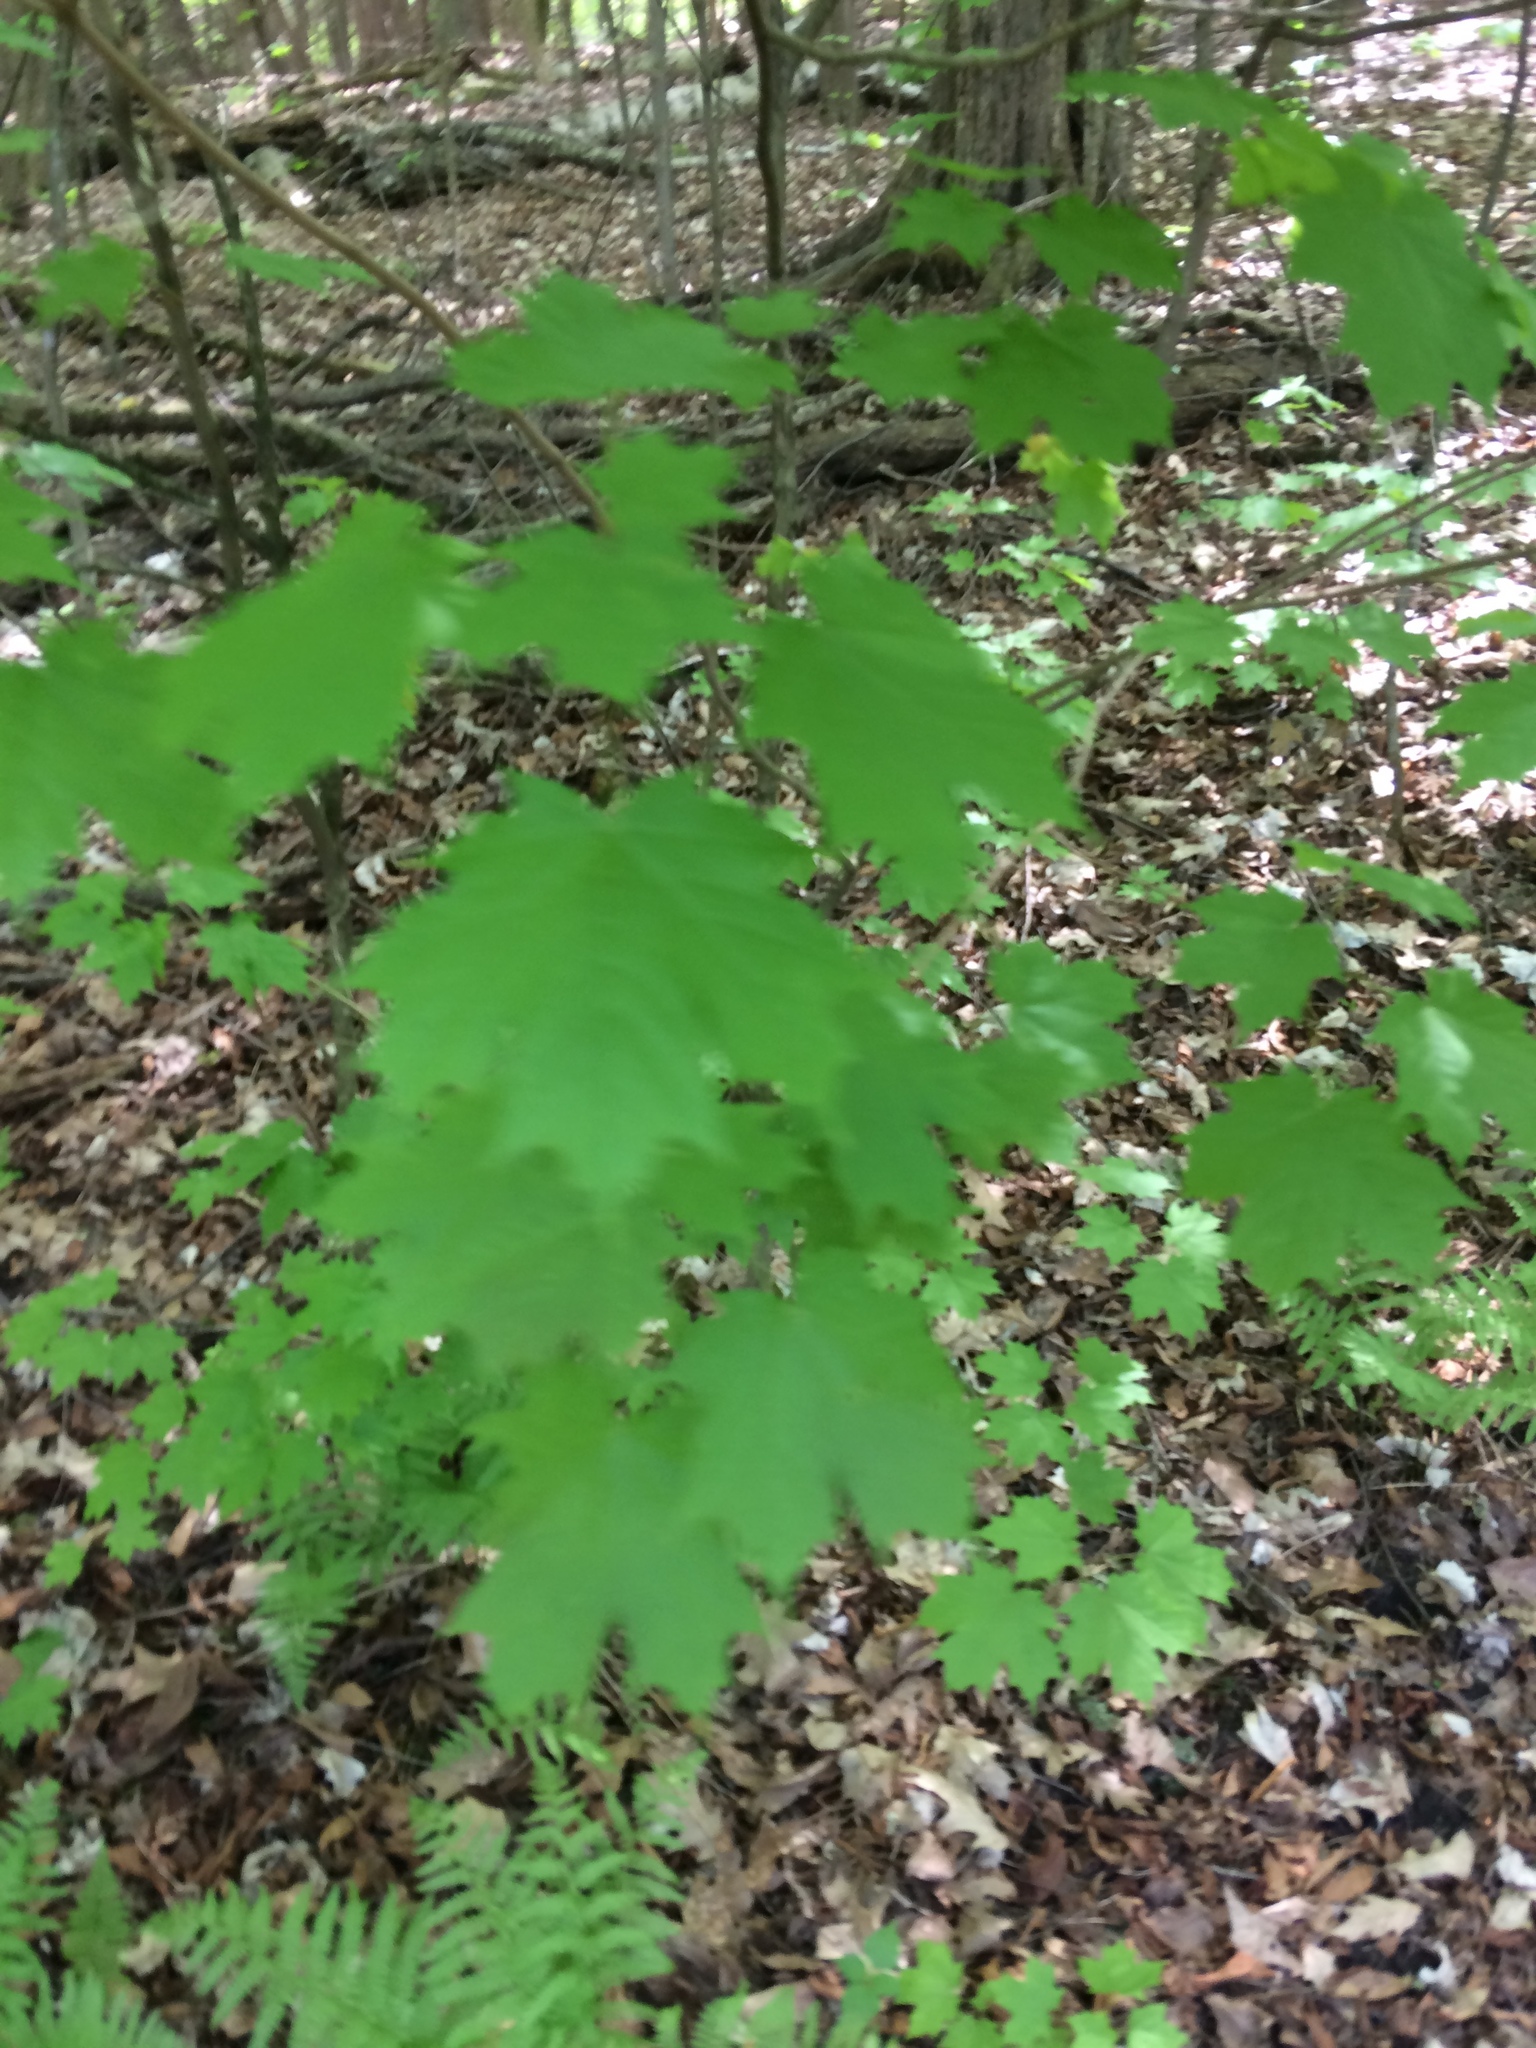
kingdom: Plantae
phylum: Tracheophyta
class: Magnoliopsida
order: Sapindales
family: Sapindaceae
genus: Acer
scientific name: Acer saccharum
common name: Sugar maple
